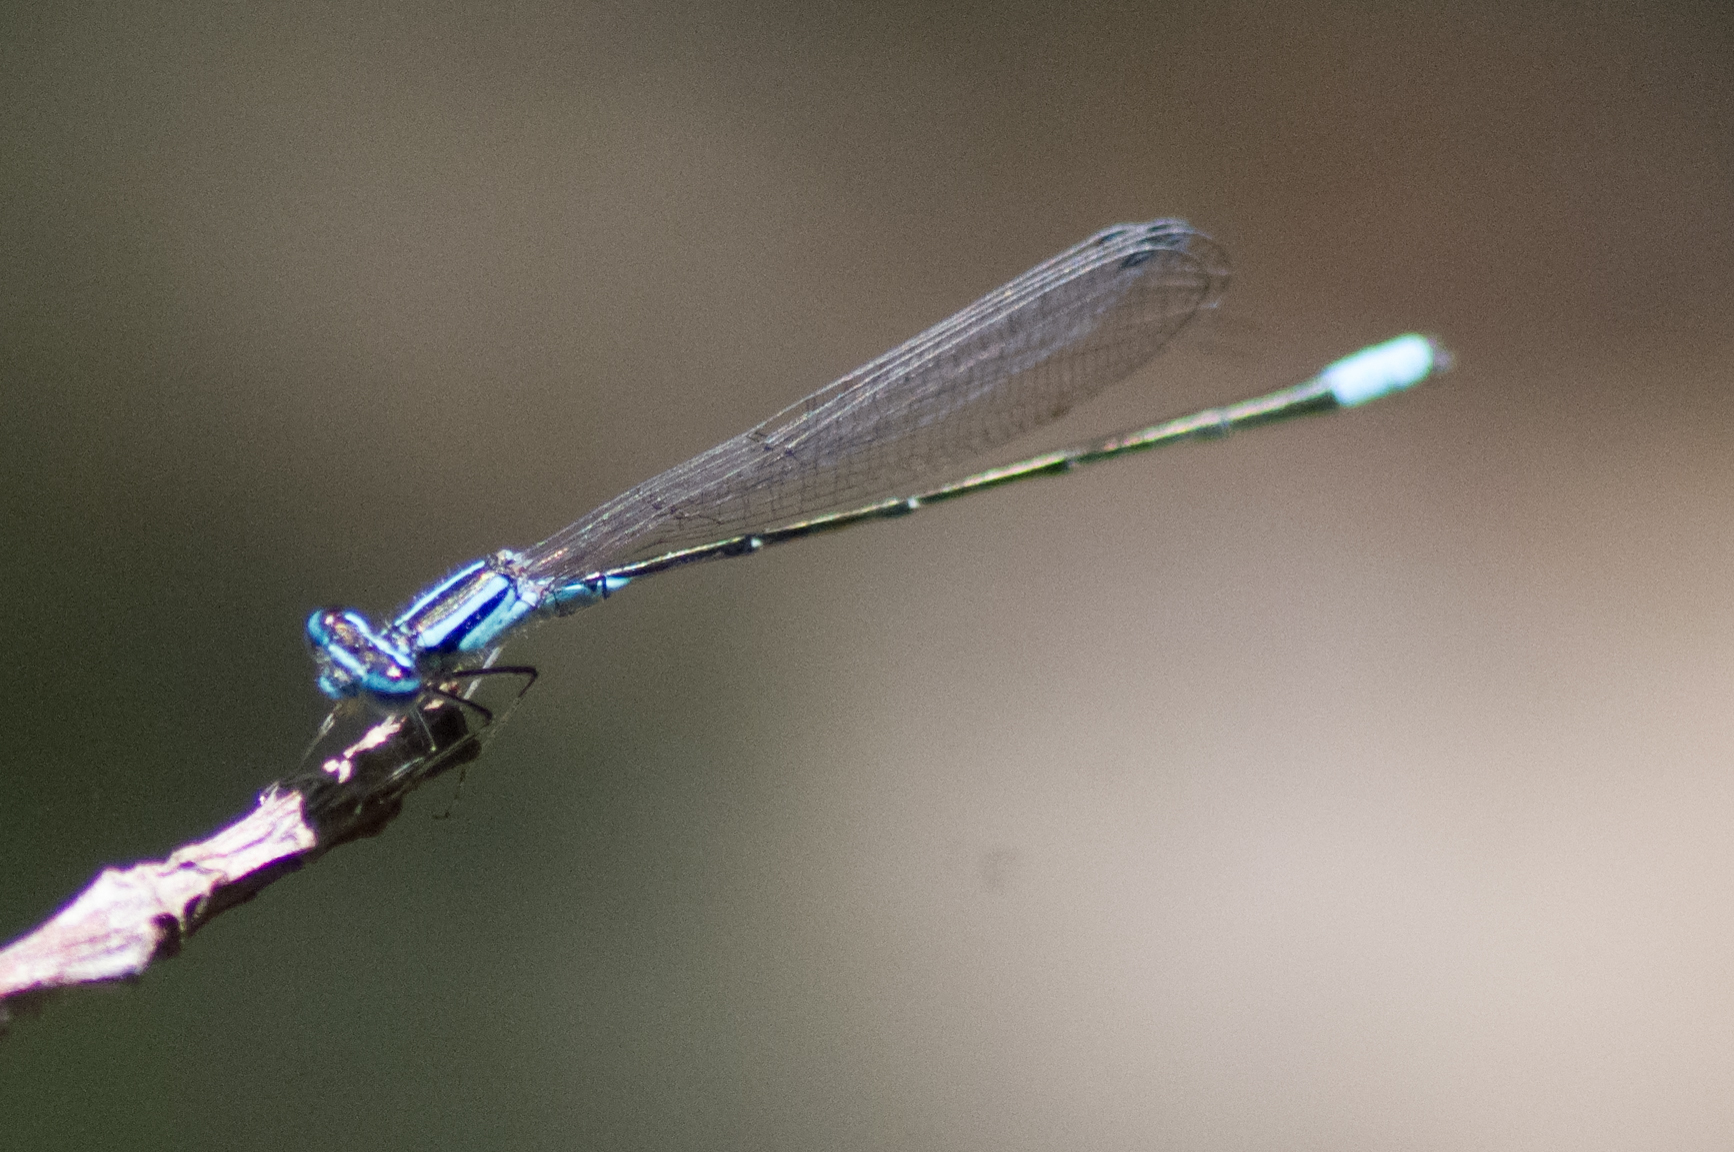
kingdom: Animalia
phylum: Arthropoda
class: Insecta
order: Odonata
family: Coenagrionidae
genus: Enallagma
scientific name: Enallagma divagans
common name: Turquoise bluet
